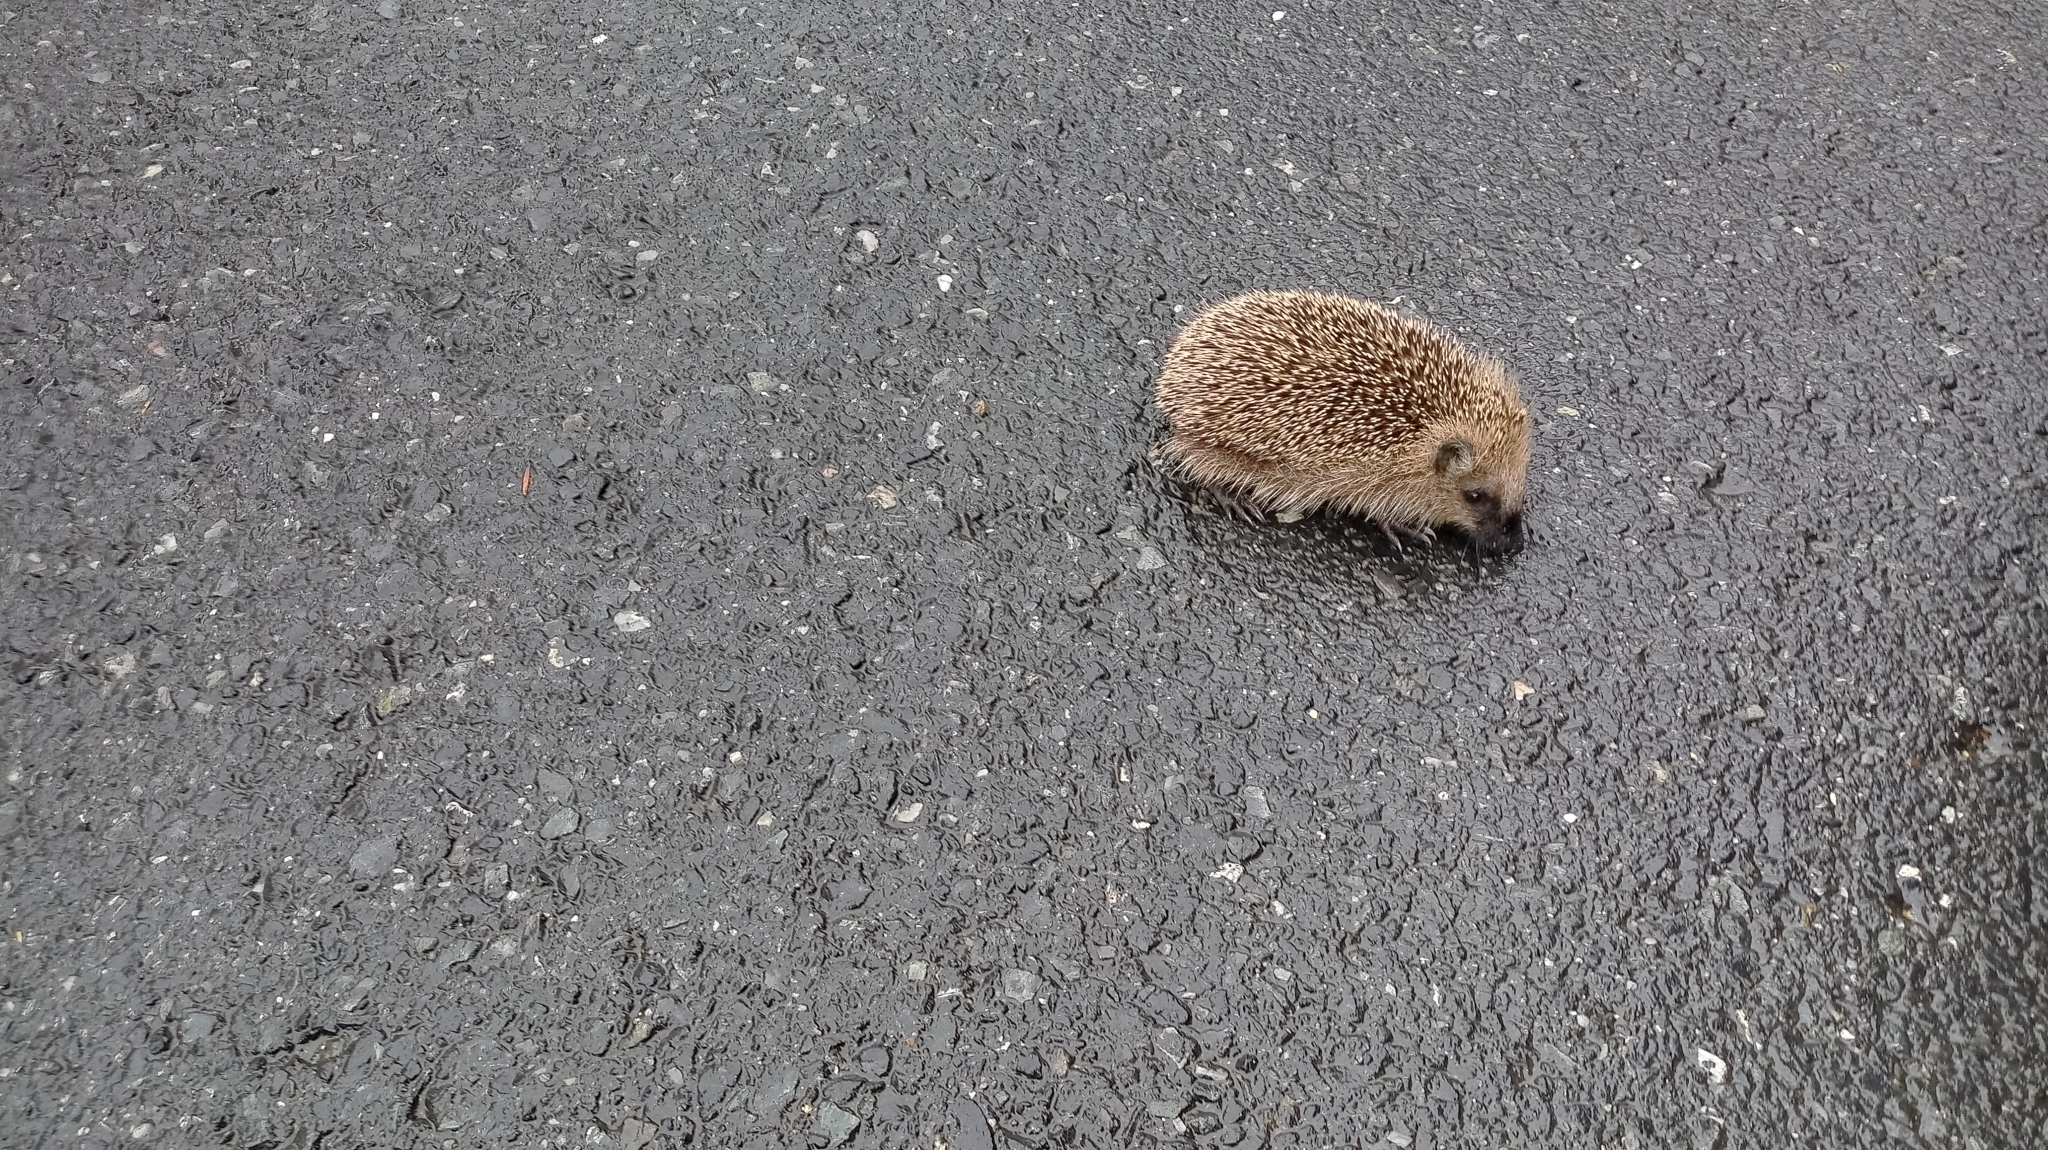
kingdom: Animalia
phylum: Chordata
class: Mammalia
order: Erinaceomorpha
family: Erinaceidae
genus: Erinaceus
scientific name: Erinaceus europaeus
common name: West european hedgehog
